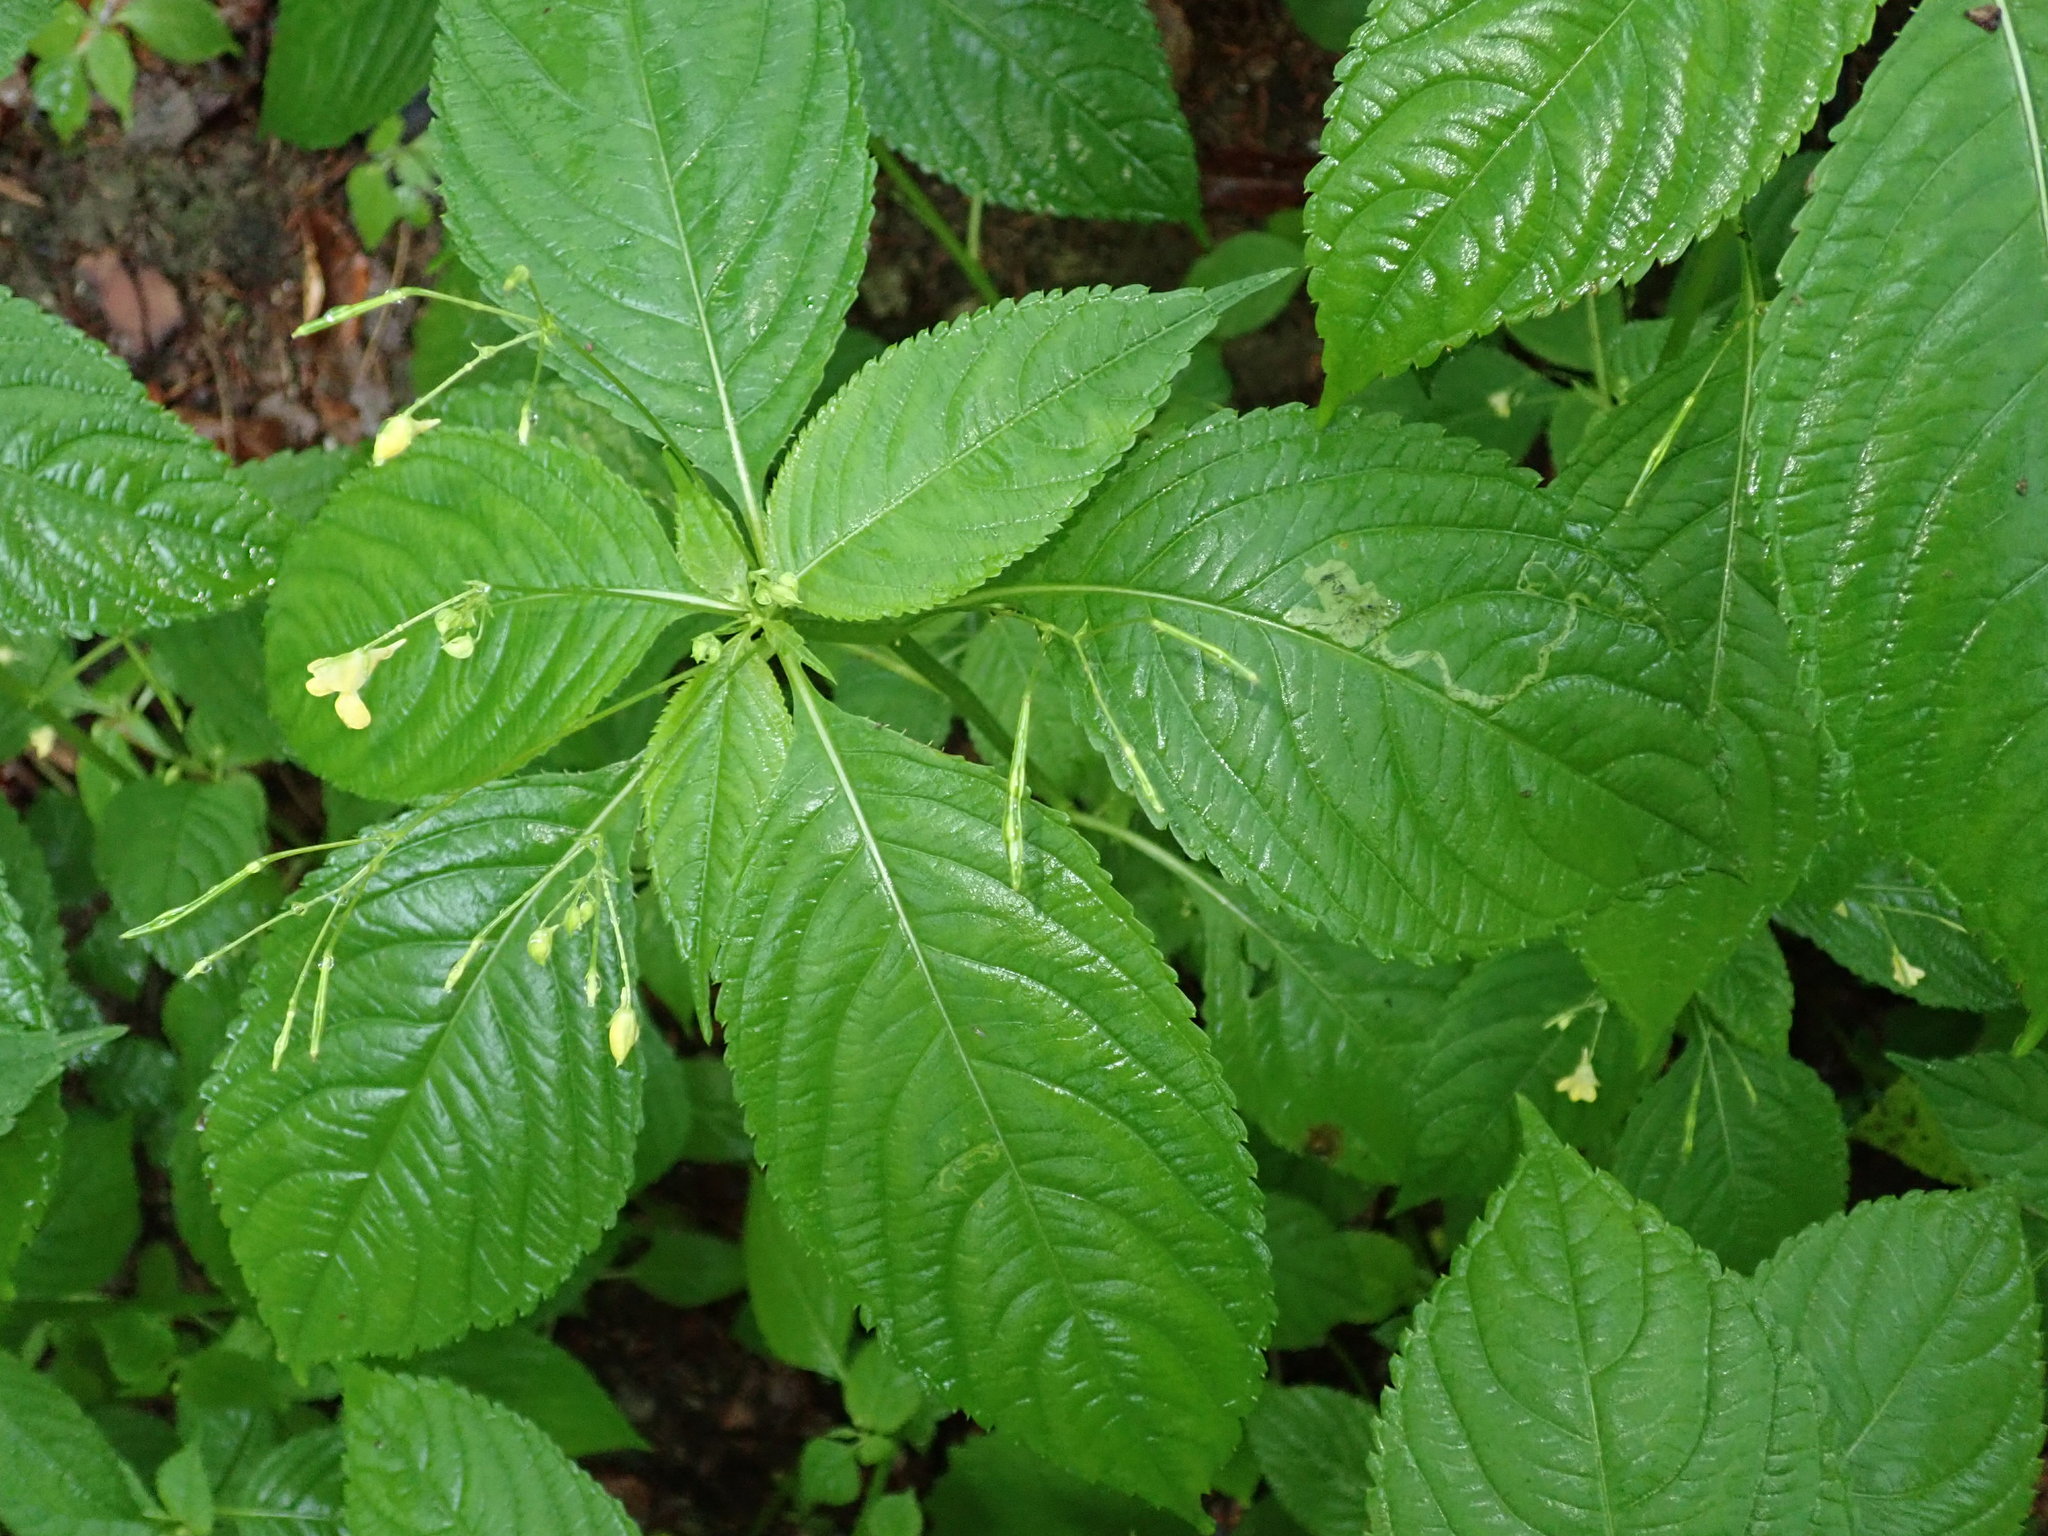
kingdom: Plantae
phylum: Tracheophyta
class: Magnoliopsida
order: Ericales
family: Balsaminaceae
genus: Impatiens
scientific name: Impatiens parviflora
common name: Small balsam
